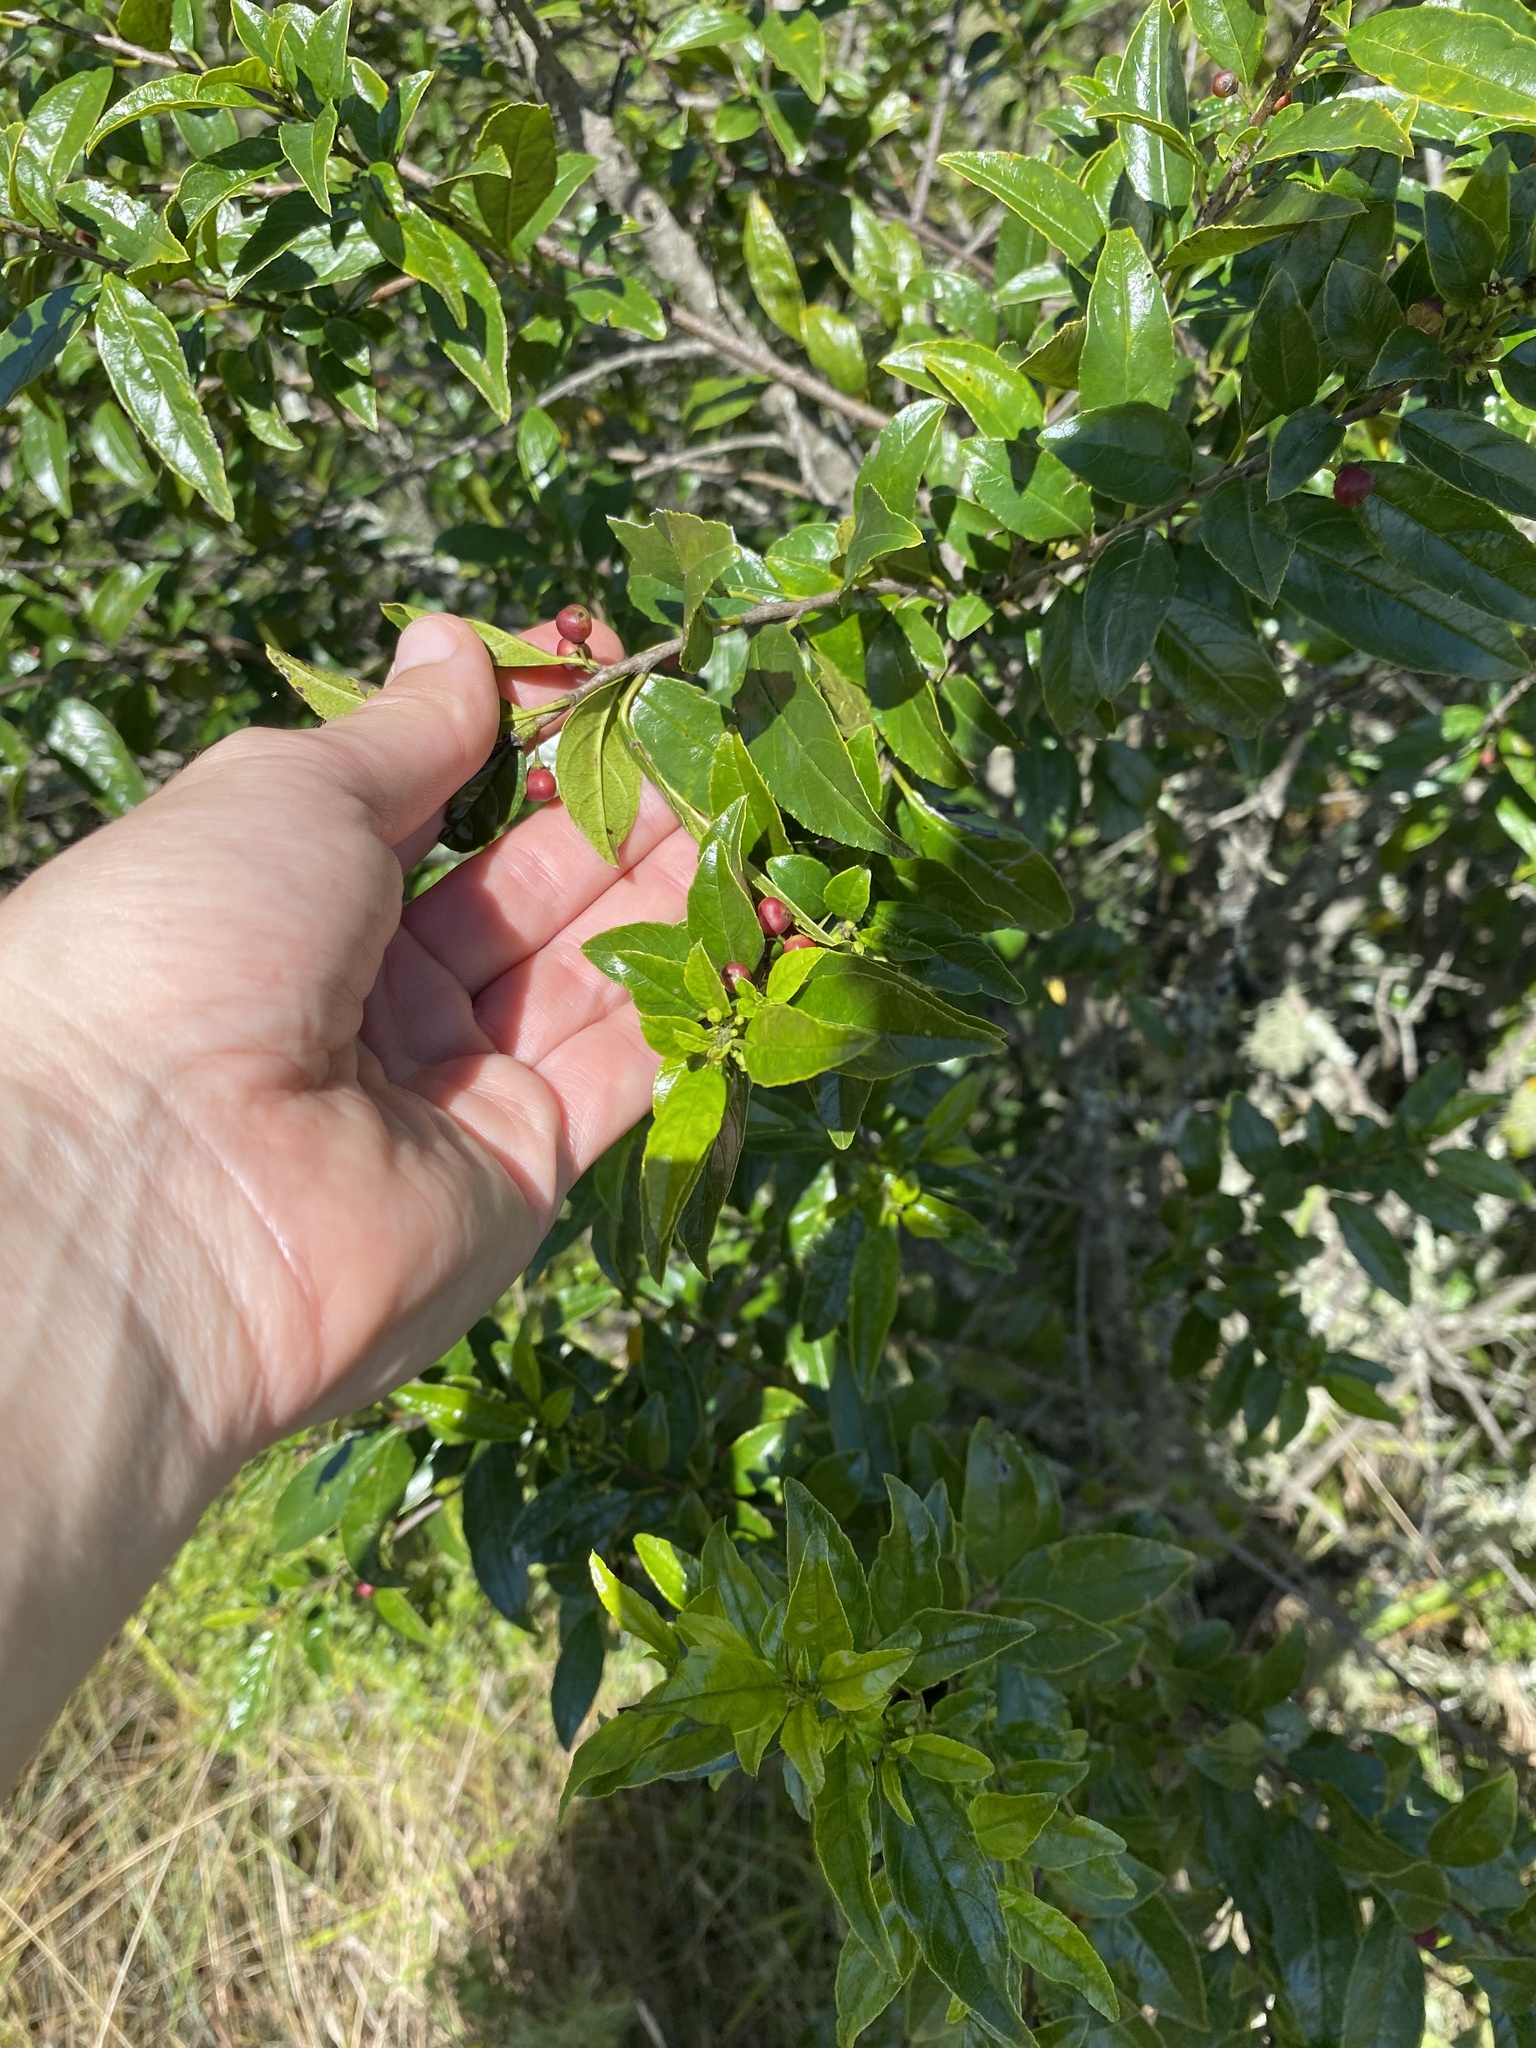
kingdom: Plantae
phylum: Tracheophyta
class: Magnoliopsida
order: Rosales
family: Rhamnaceae
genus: Rhamnus
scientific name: Rhamnus prinoides
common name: Dogwood
